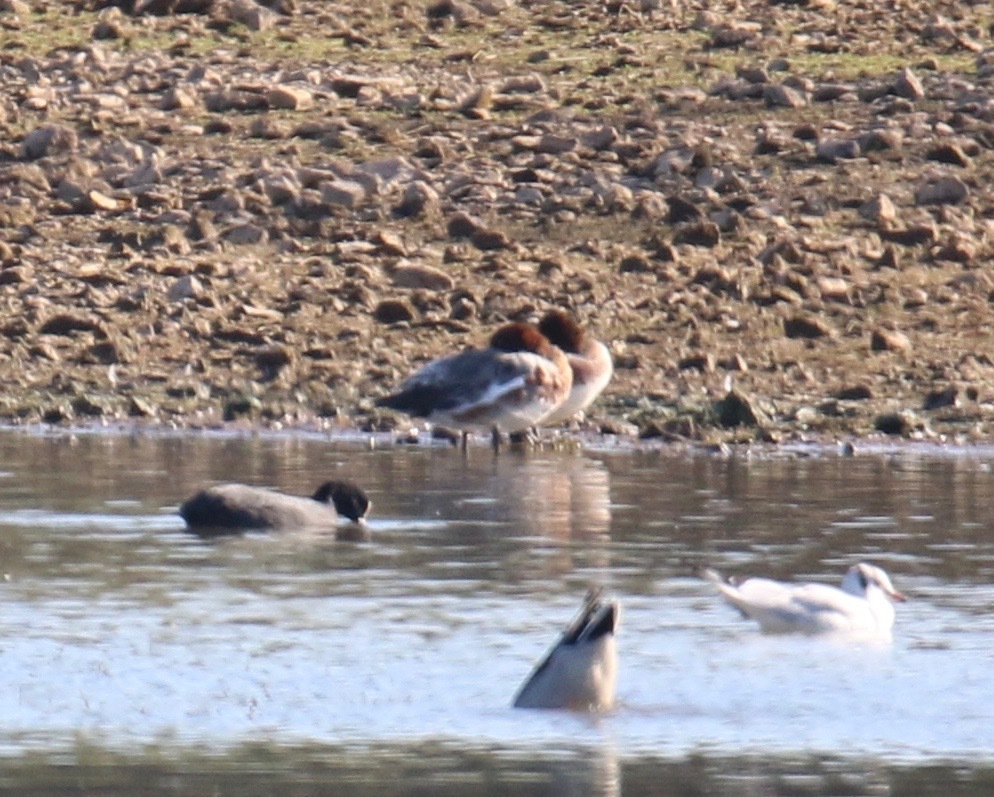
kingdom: Animalia
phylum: Chordata
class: Aves
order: Anseriformes
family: Anatidae
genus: Mareca
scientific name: Mareca penelope
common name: Eurasian wigeon
